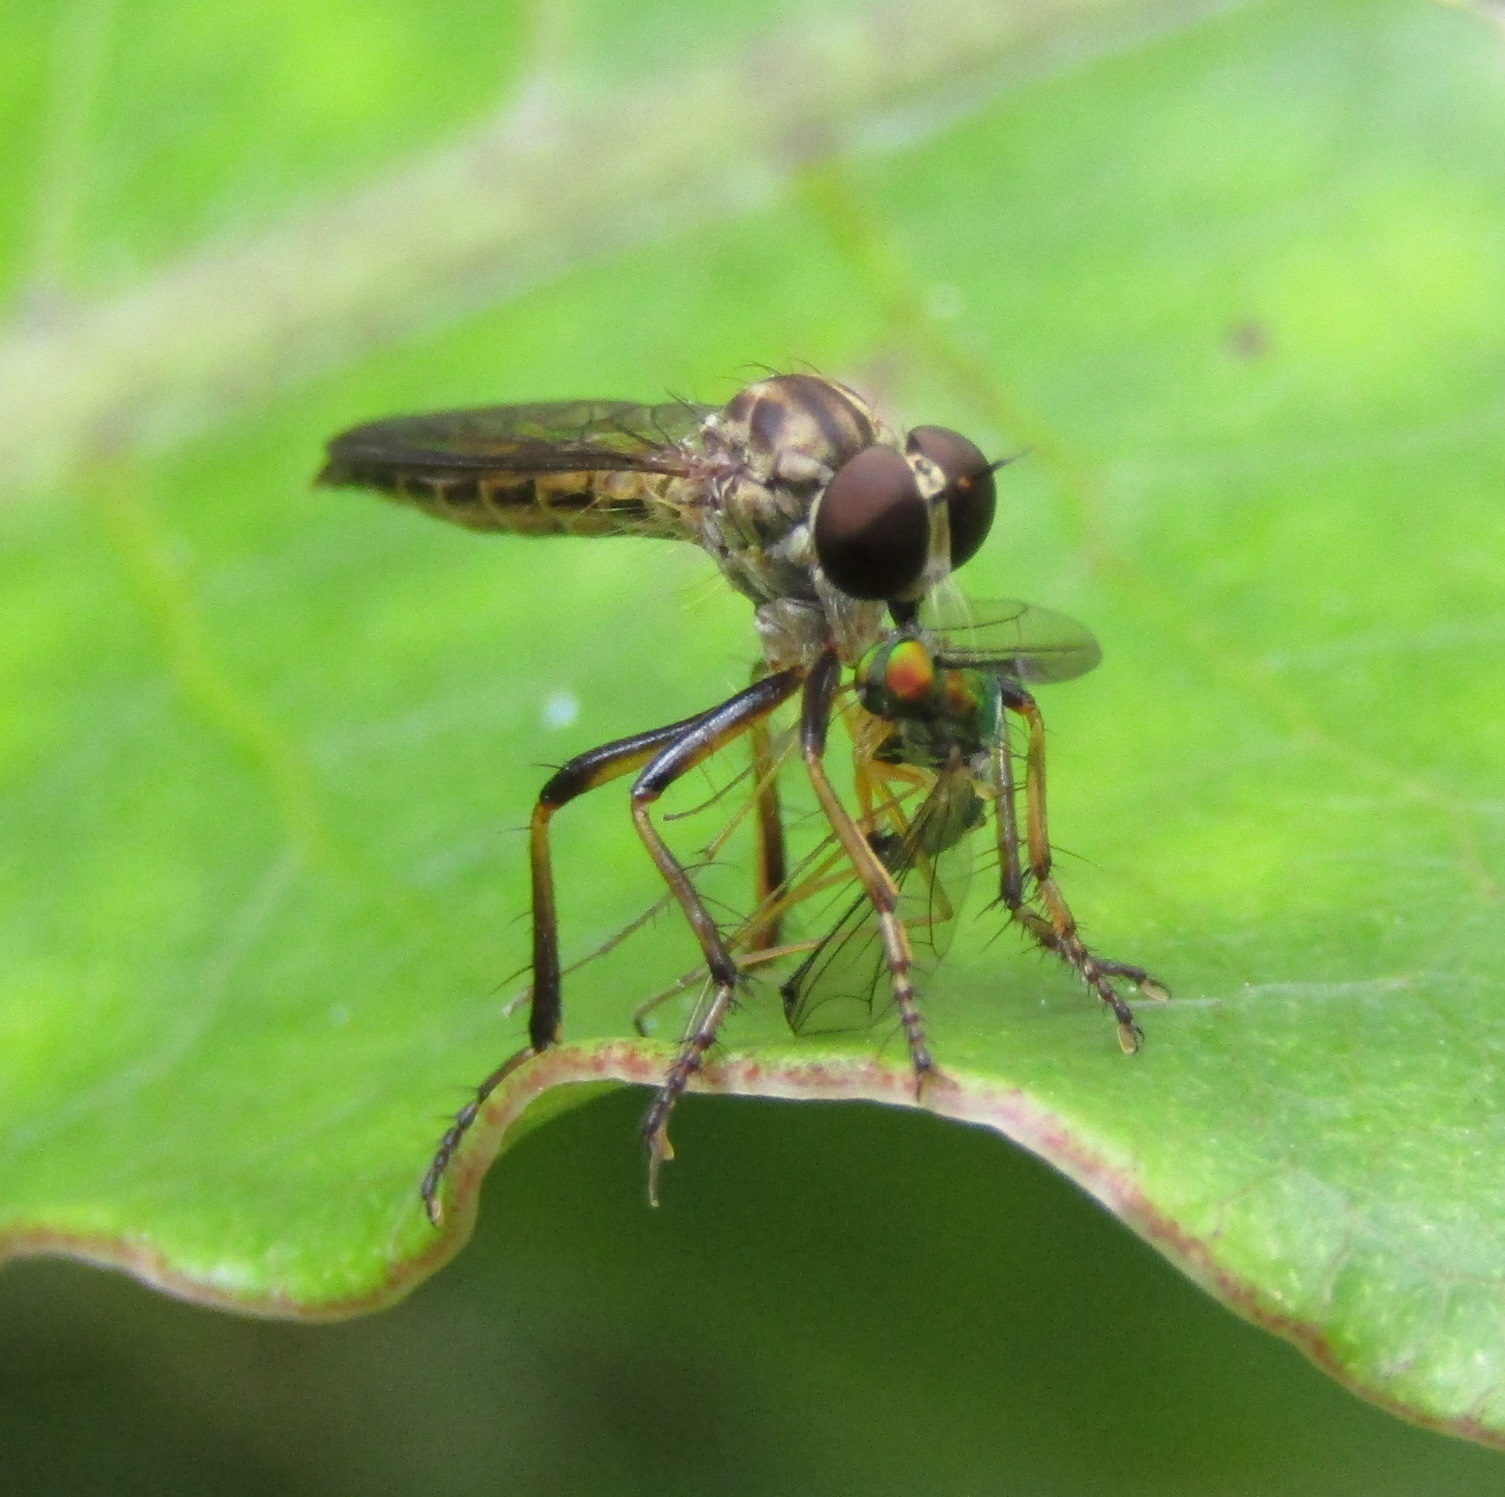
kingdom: Animalia
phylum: Arthropoda
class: Insecta
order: Diptera
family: Dolichopodidae
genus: Parentia
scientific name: Parentia anomalicosta
